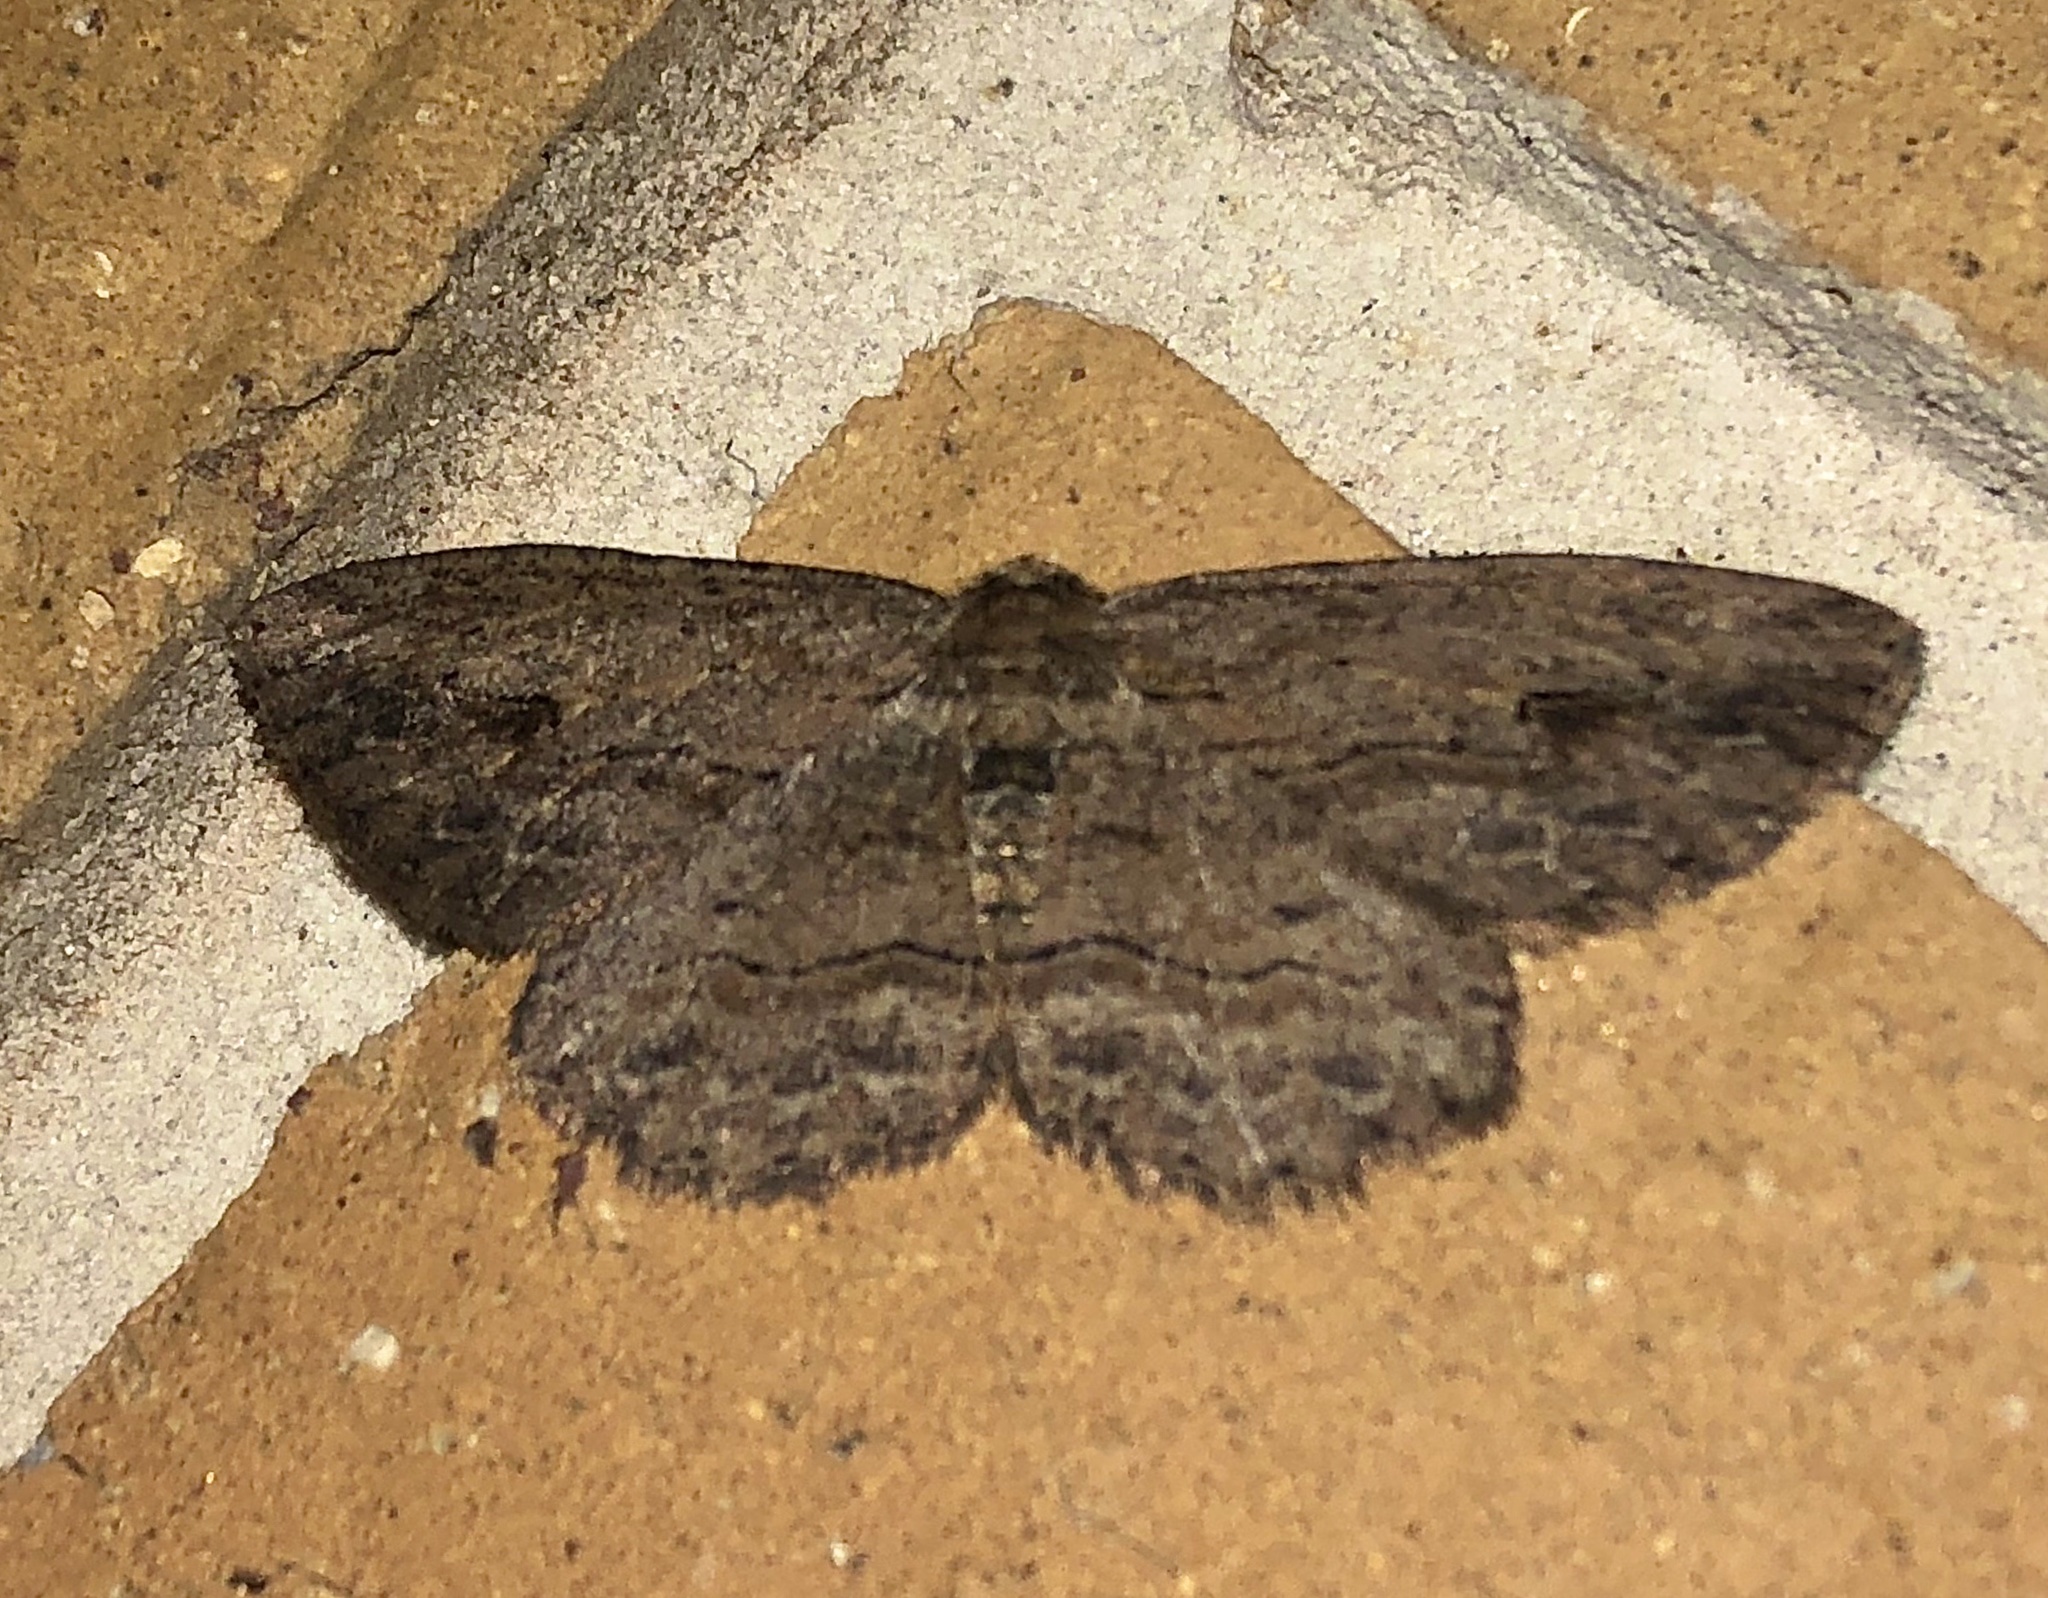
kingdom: Animalia
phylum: Arthropoda
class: Insecta
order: Lepidoptera
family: Geometridae
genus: Ectropis
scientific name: Ectropis excursaria
